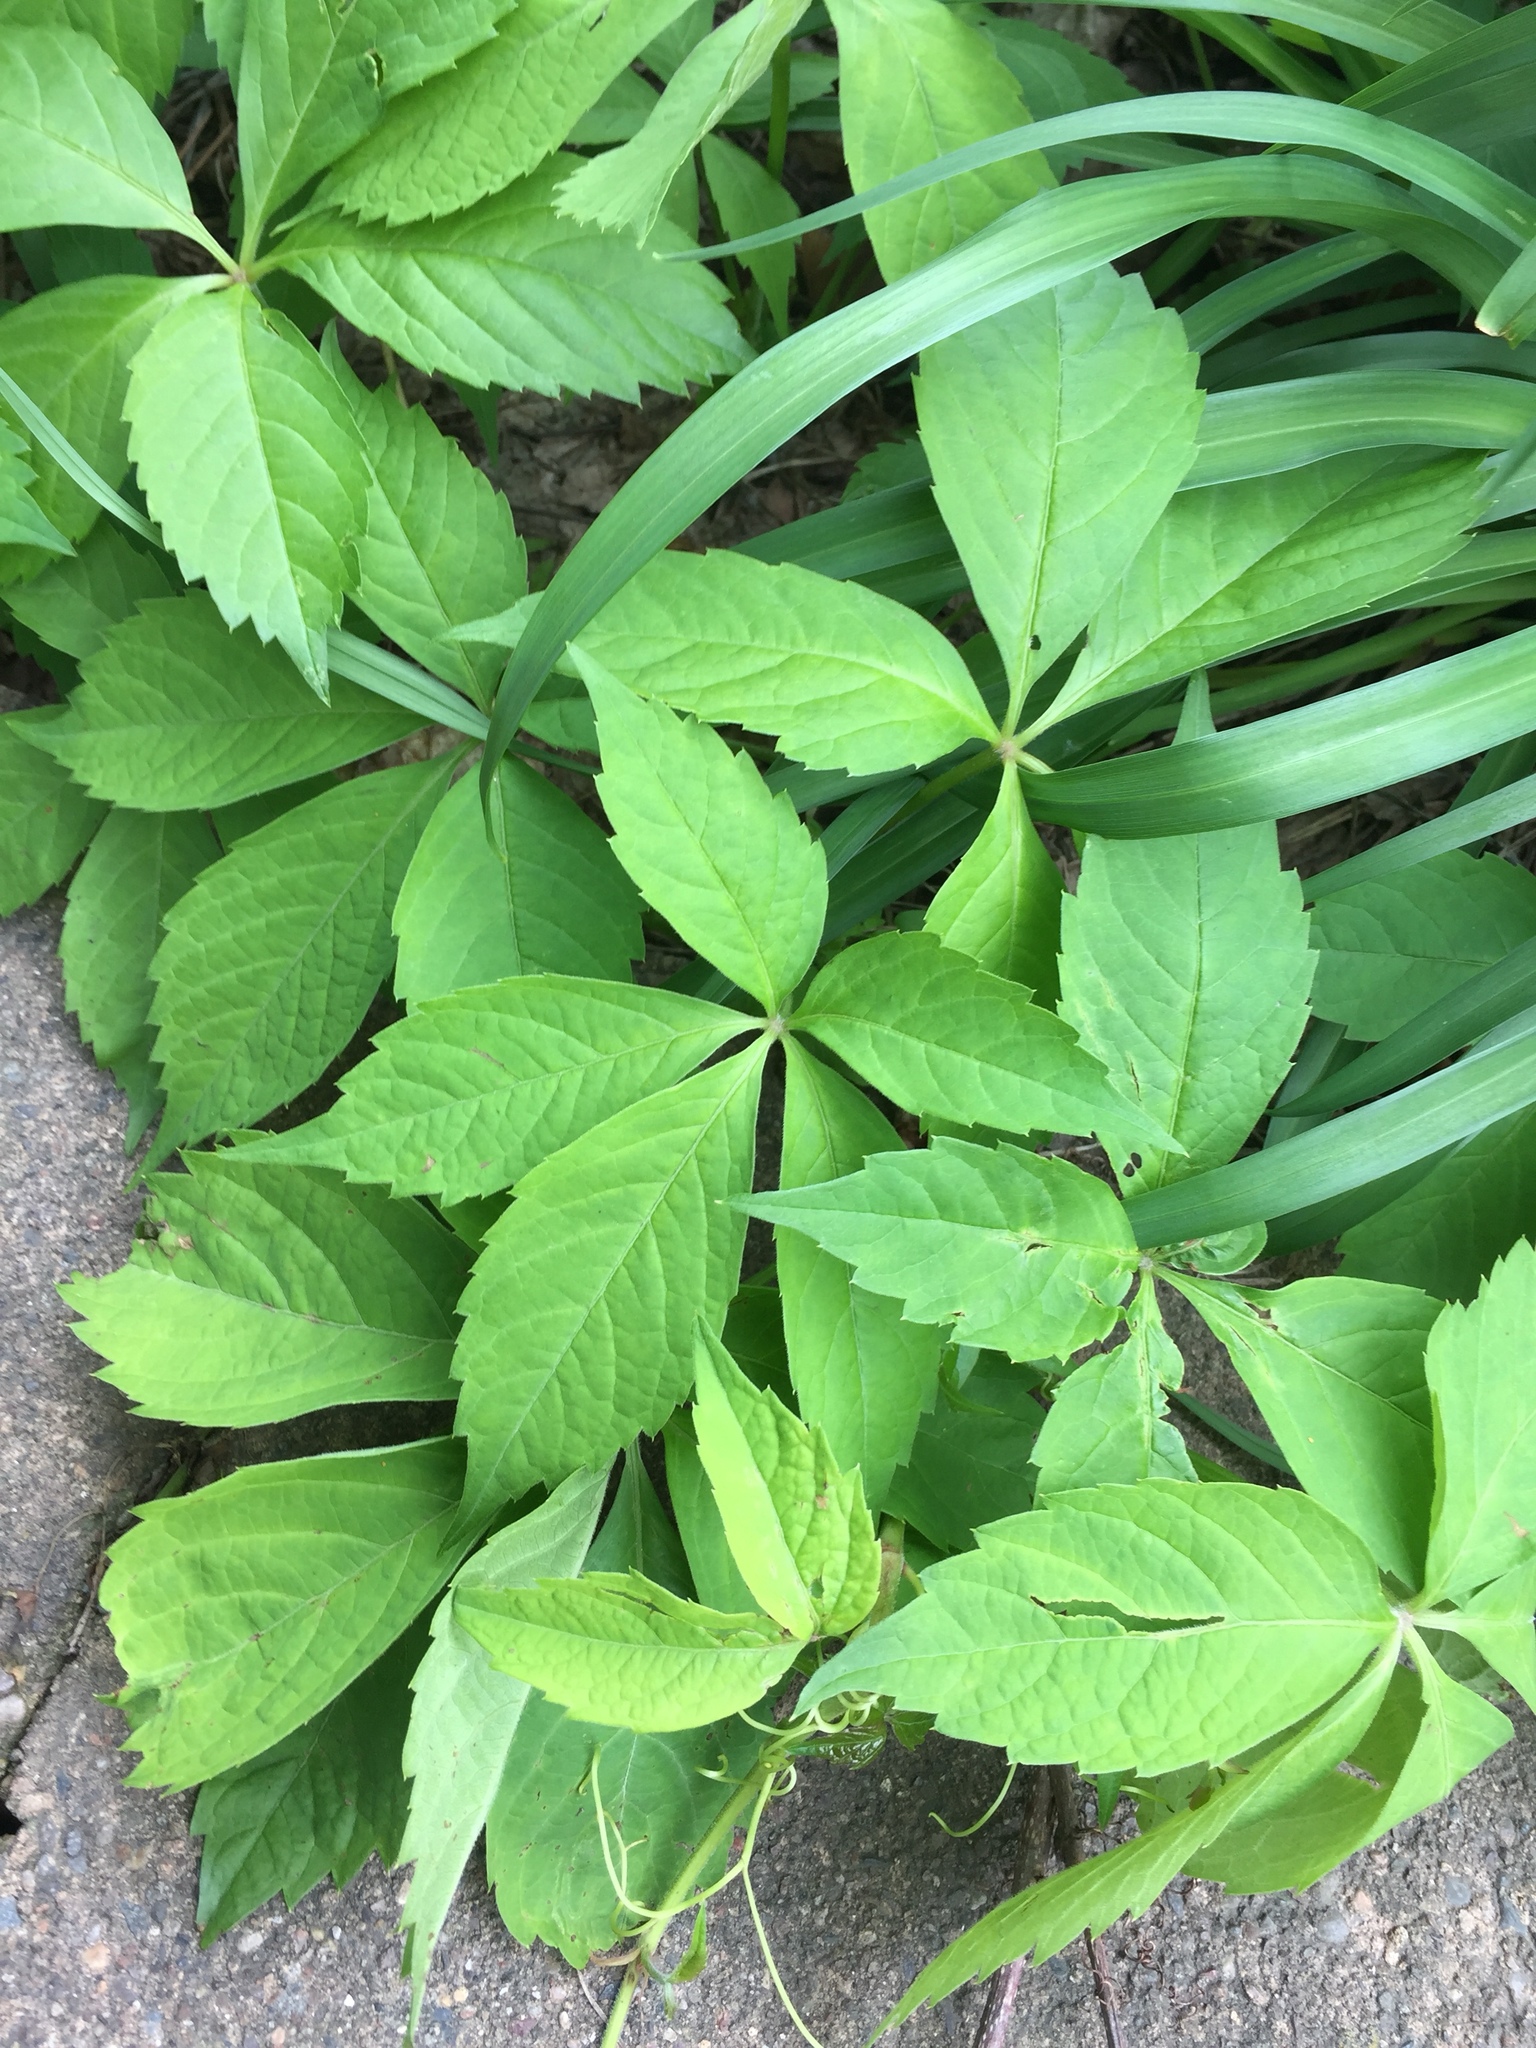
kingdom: Plantae
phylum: Tracheophyta
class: Magnoliopsida
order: Vitales
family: Vitaceae
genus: Parthenocissus
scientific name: Parthenocissus quinquefolia
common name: Virginia-creeper
